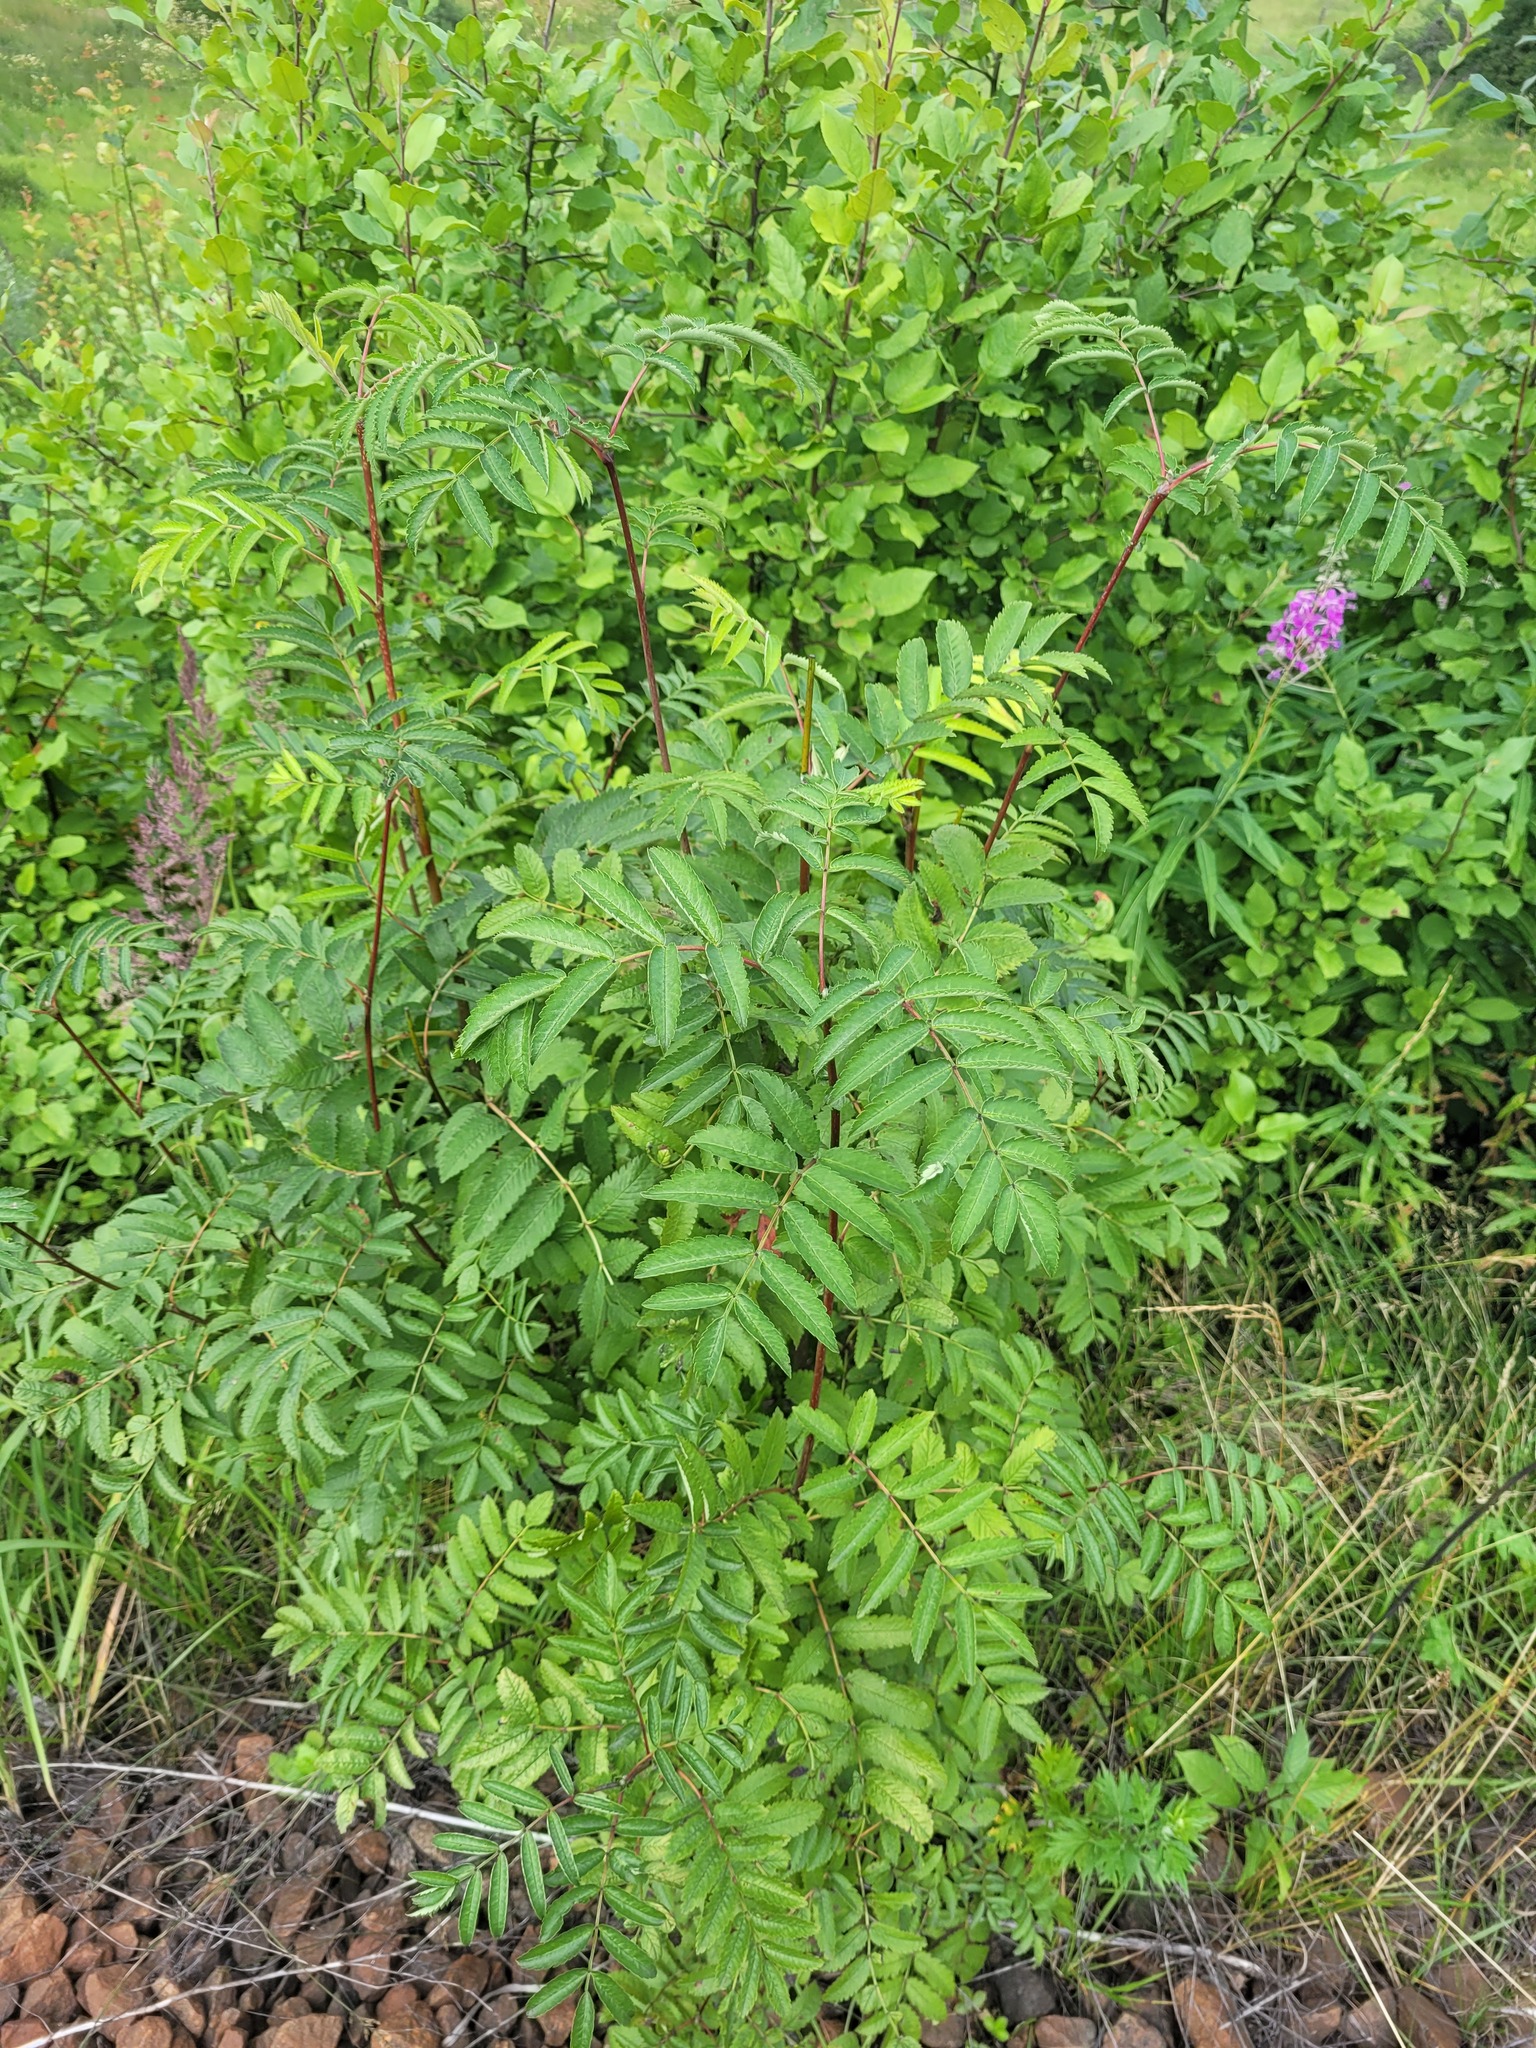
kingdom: Plantae
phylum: Tracheophyta
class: Magnoliopsida
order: Rosales
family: Rosaceae
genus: Sorbus
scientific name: Sorbus aucuparia
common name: Rowan
